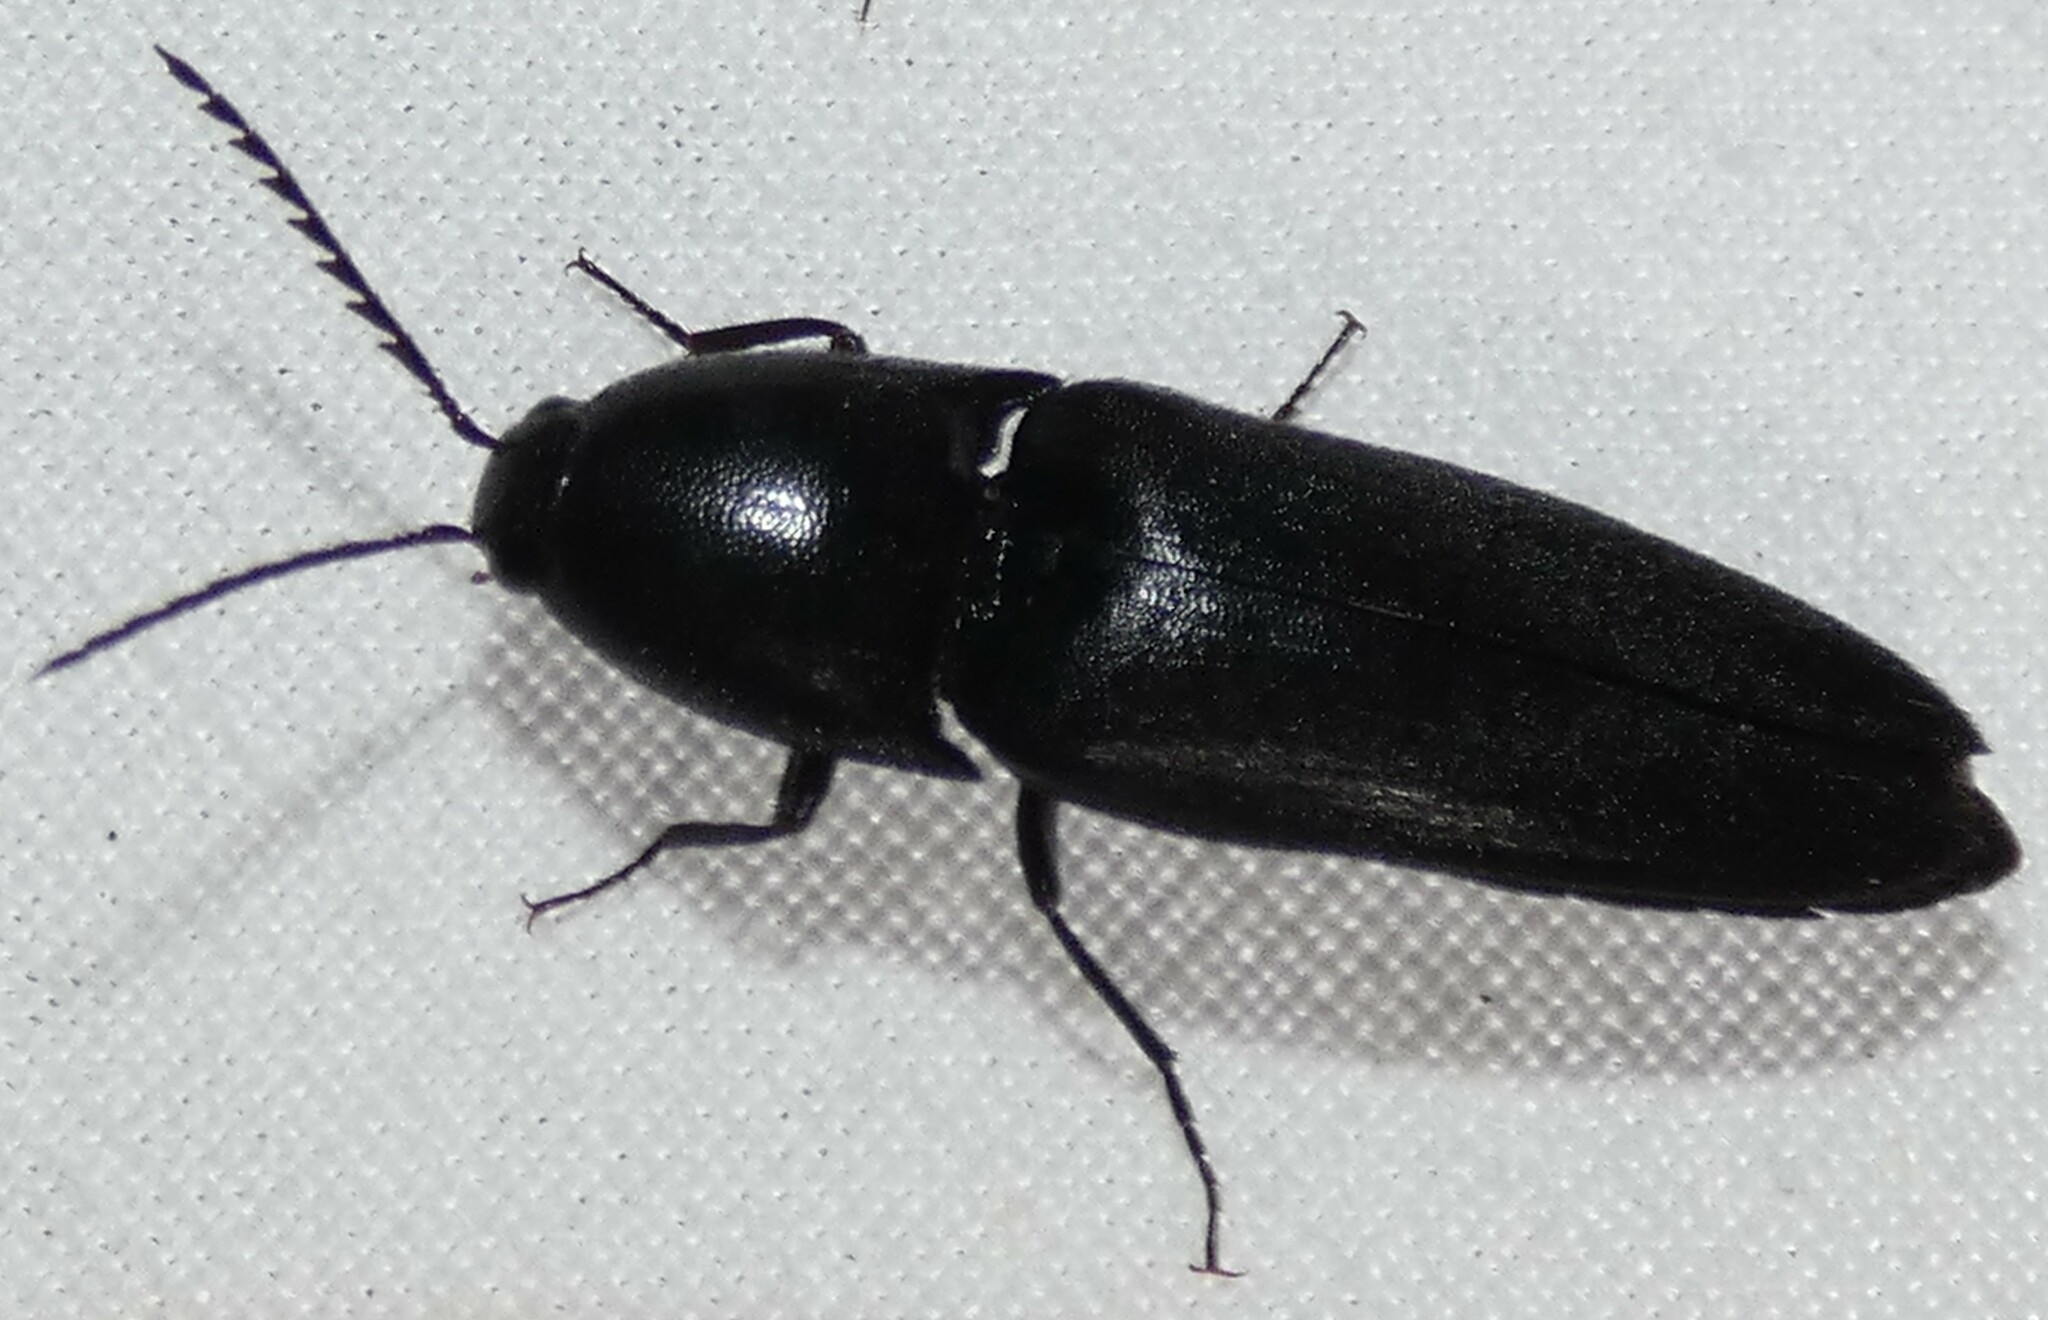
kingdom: Animalia
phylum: Arthropoda
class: Insecta
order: Coleoptera
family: Elateridae
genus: Parallelostethus
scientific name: Parallelostethus attenuatus
